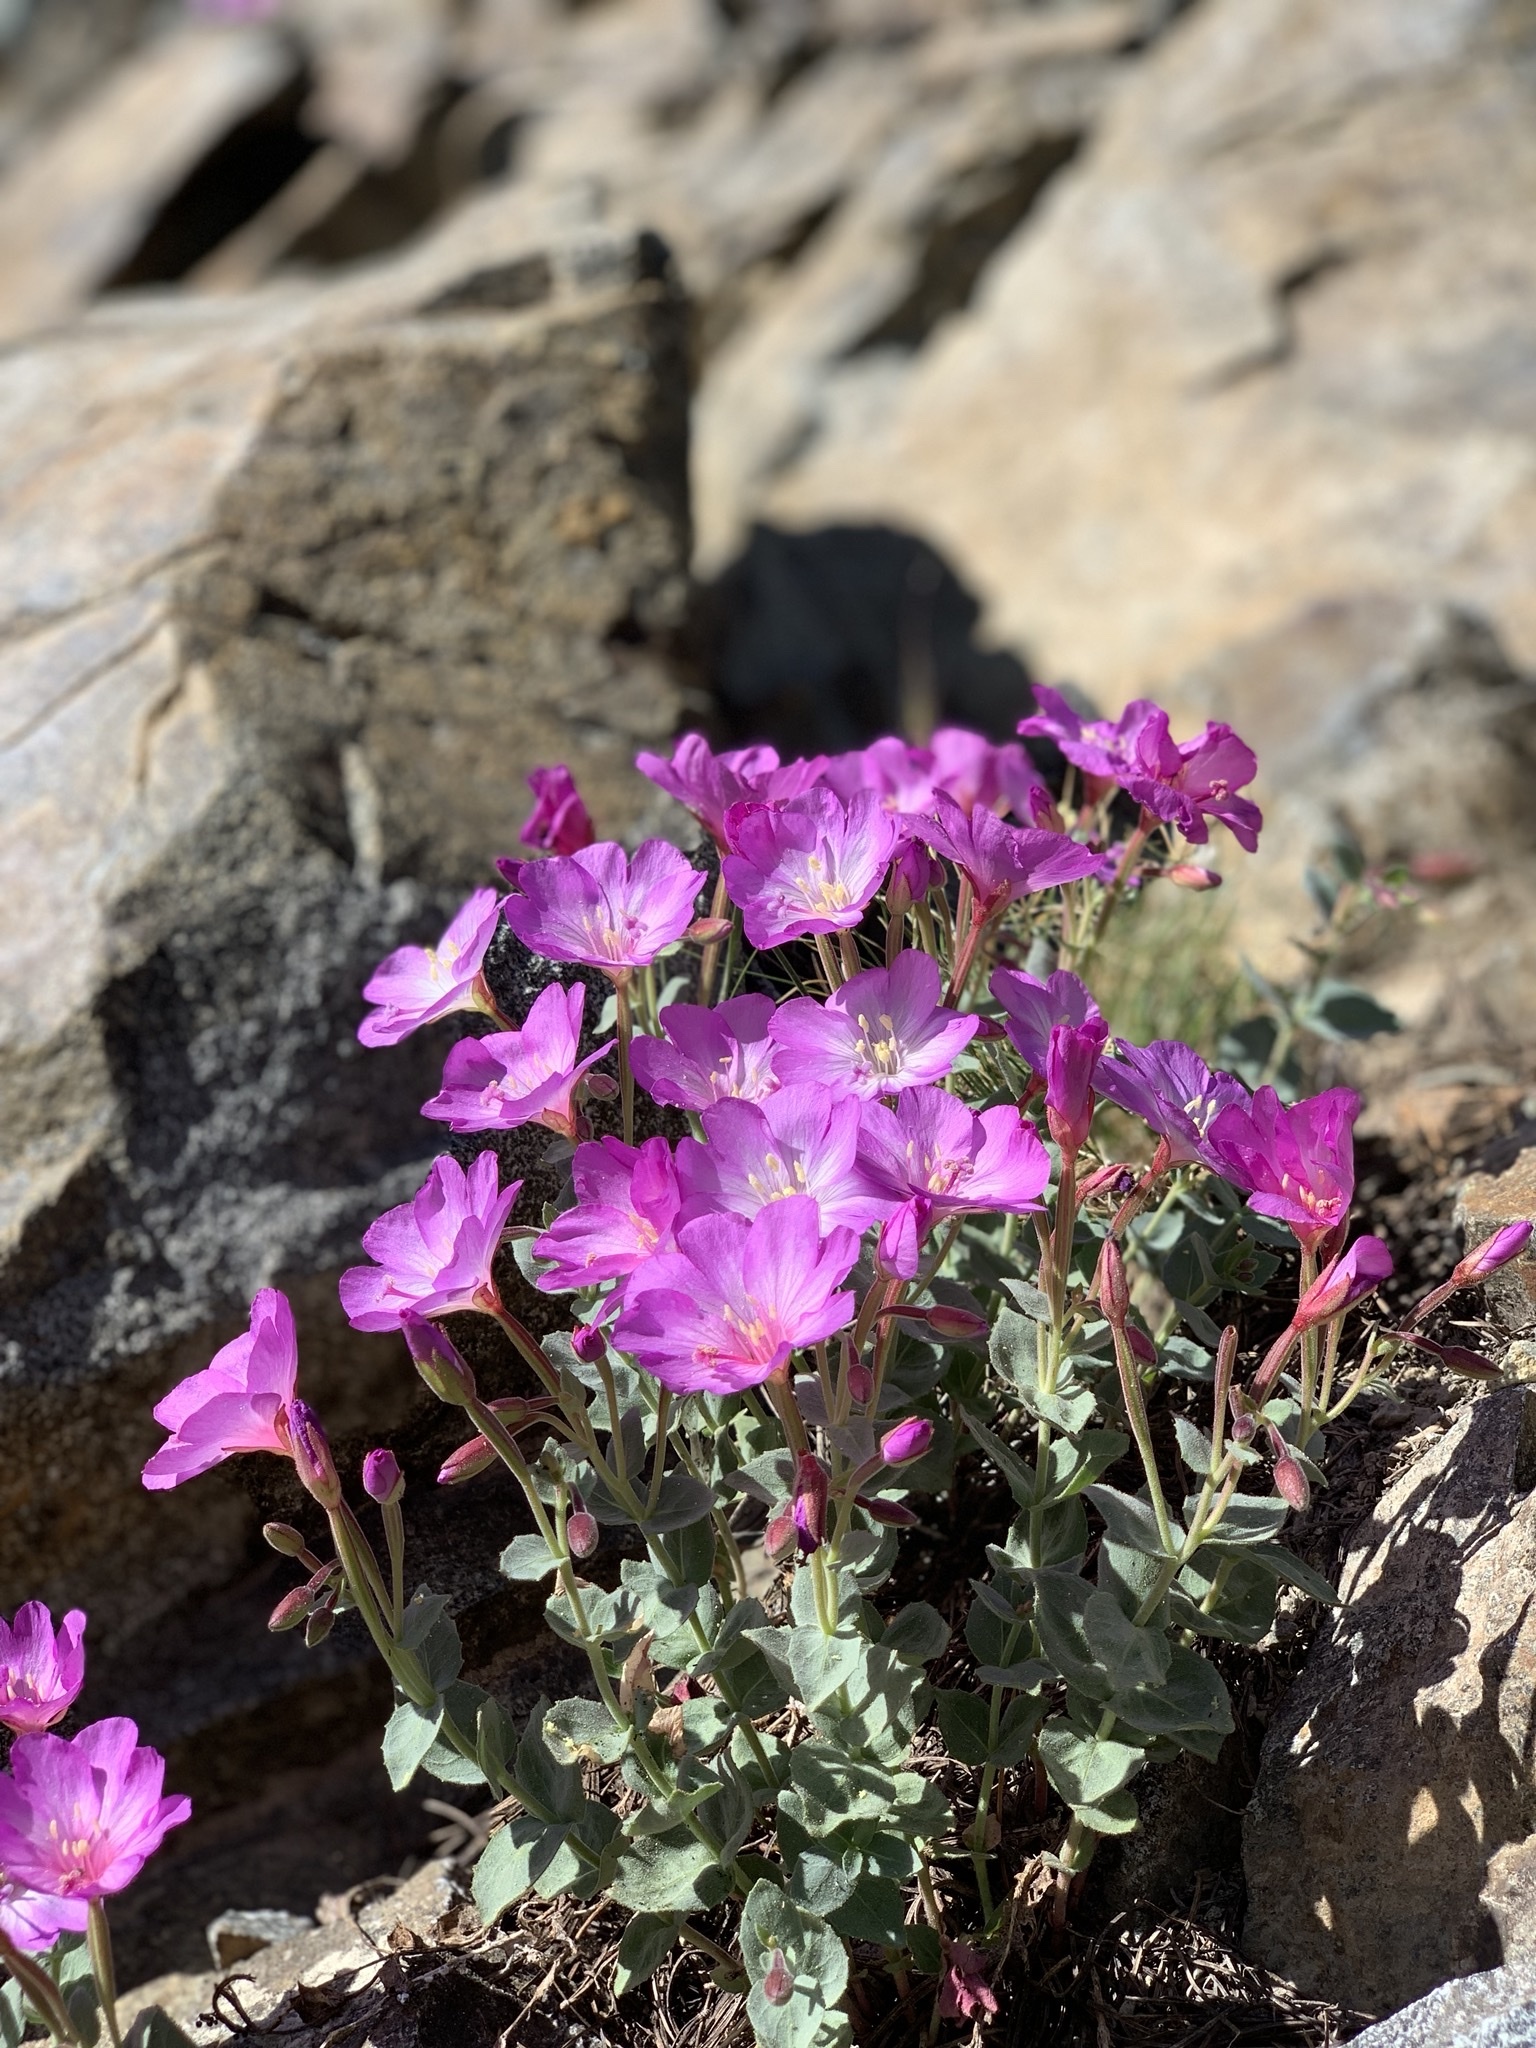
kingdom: Plantae
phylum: Tracheophyta
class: Magnoliopsida
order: Myrtales
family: Onagraceae
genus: Epilobium
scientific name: Epilobium siskiyouense
